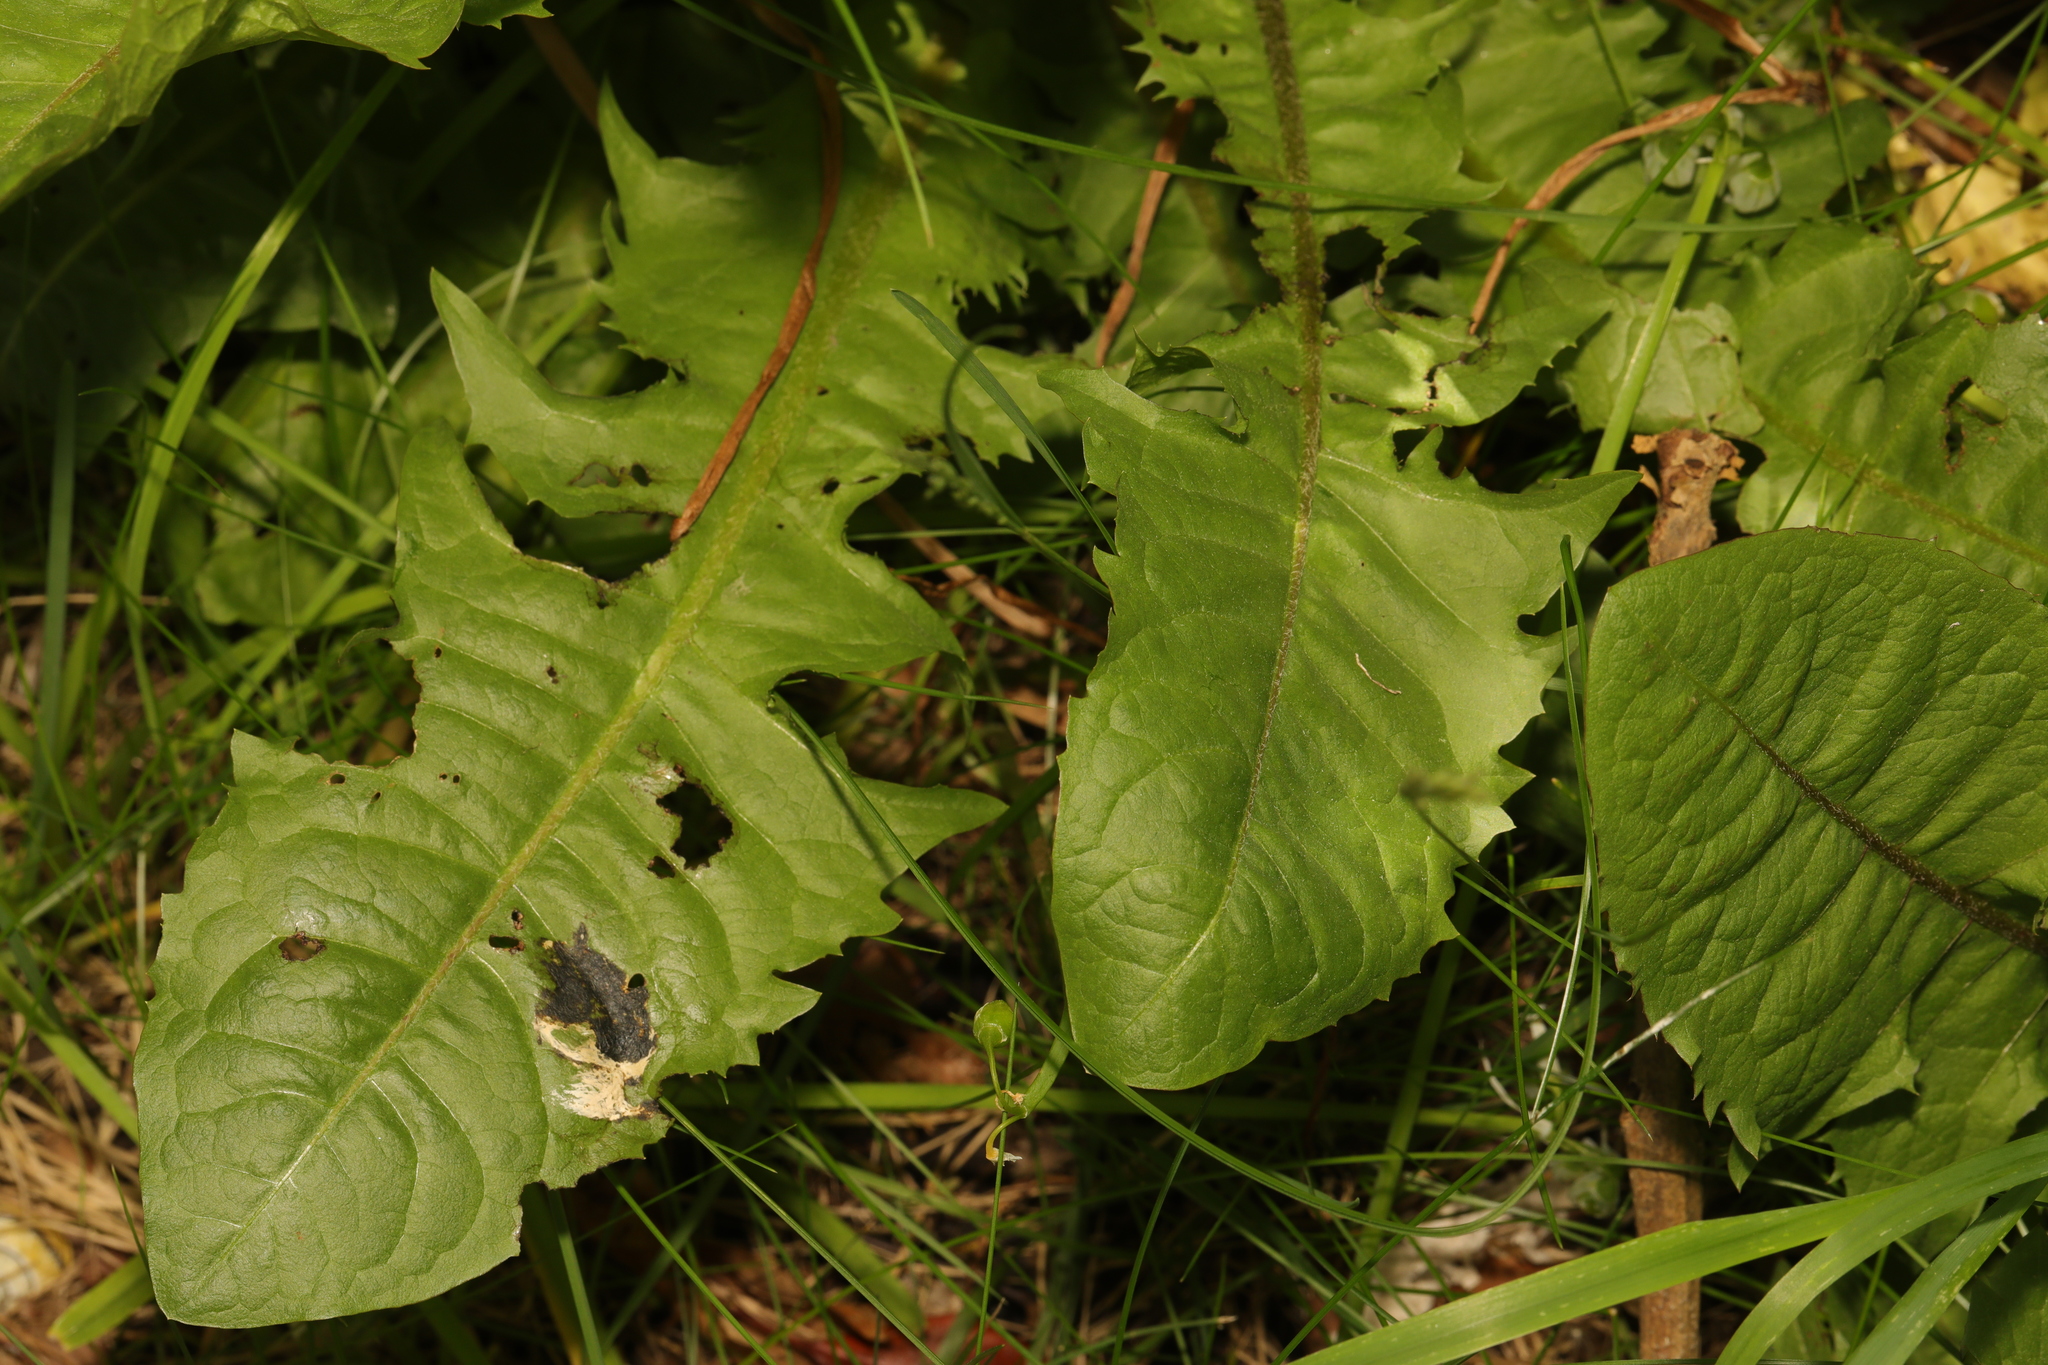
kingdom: Plantae
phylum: Tracheophyta
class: Magnoliopsida
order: Asterales
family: Asteraceae
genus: Taraxacum
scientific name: Taraxacum officinale
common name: Common dandelion
